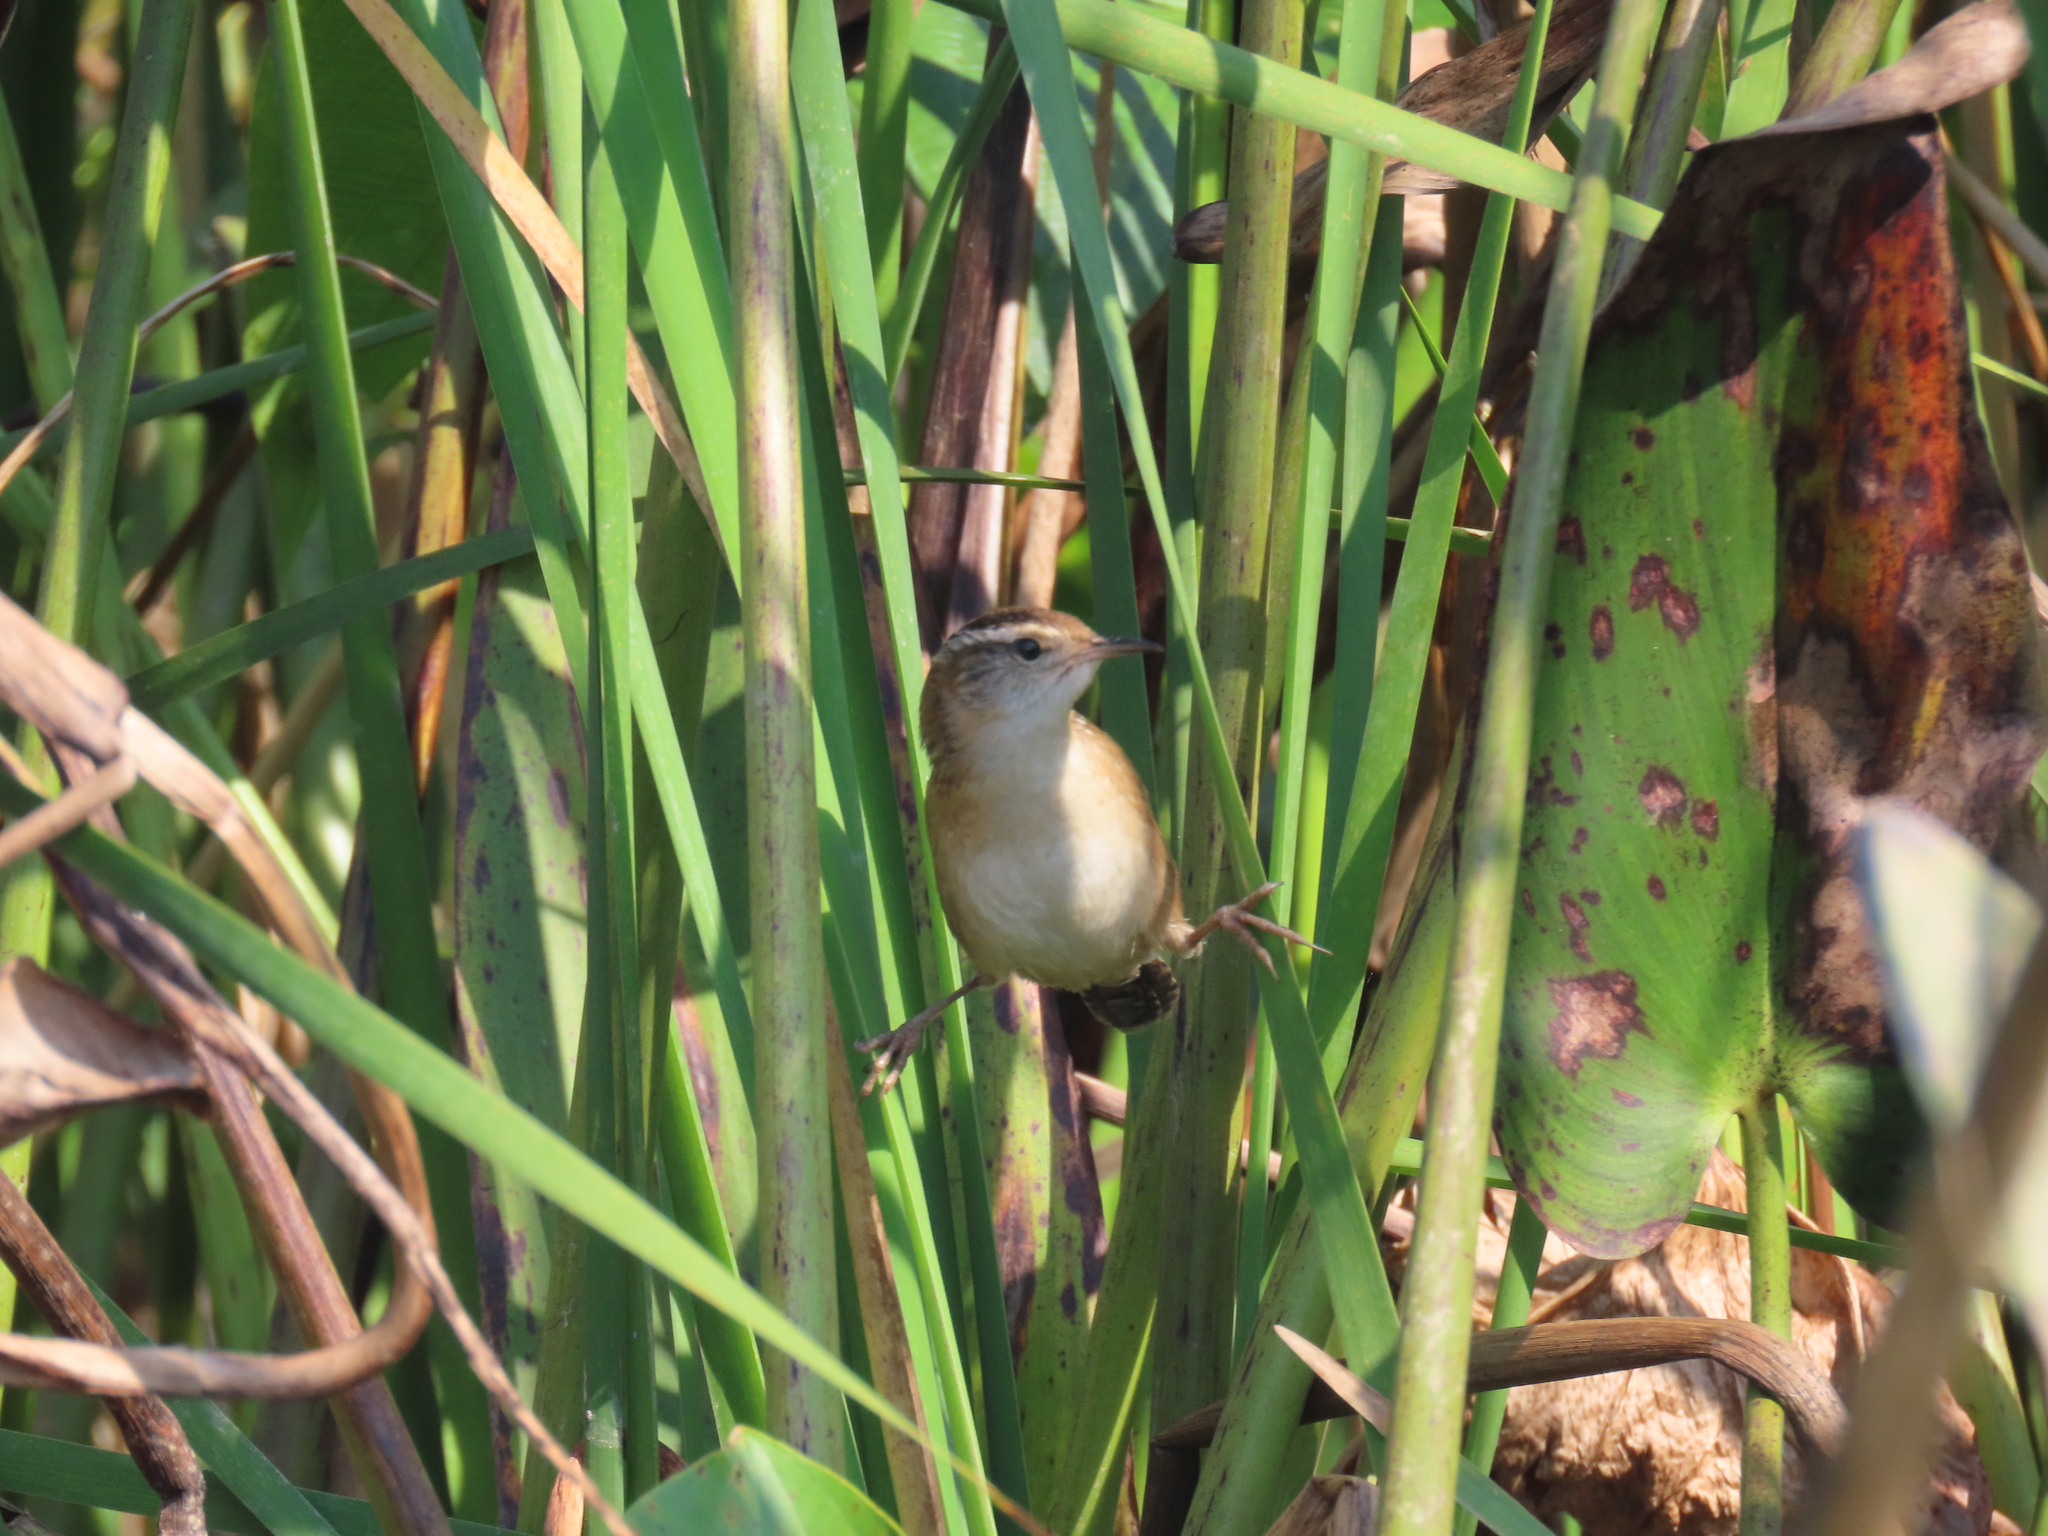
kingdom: Animalia
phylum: Chordata
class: Aves
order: Passeriformes
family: Troglodytidae
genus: Cistothorus
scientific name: Cistothorus palustris
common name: Marsh wren
